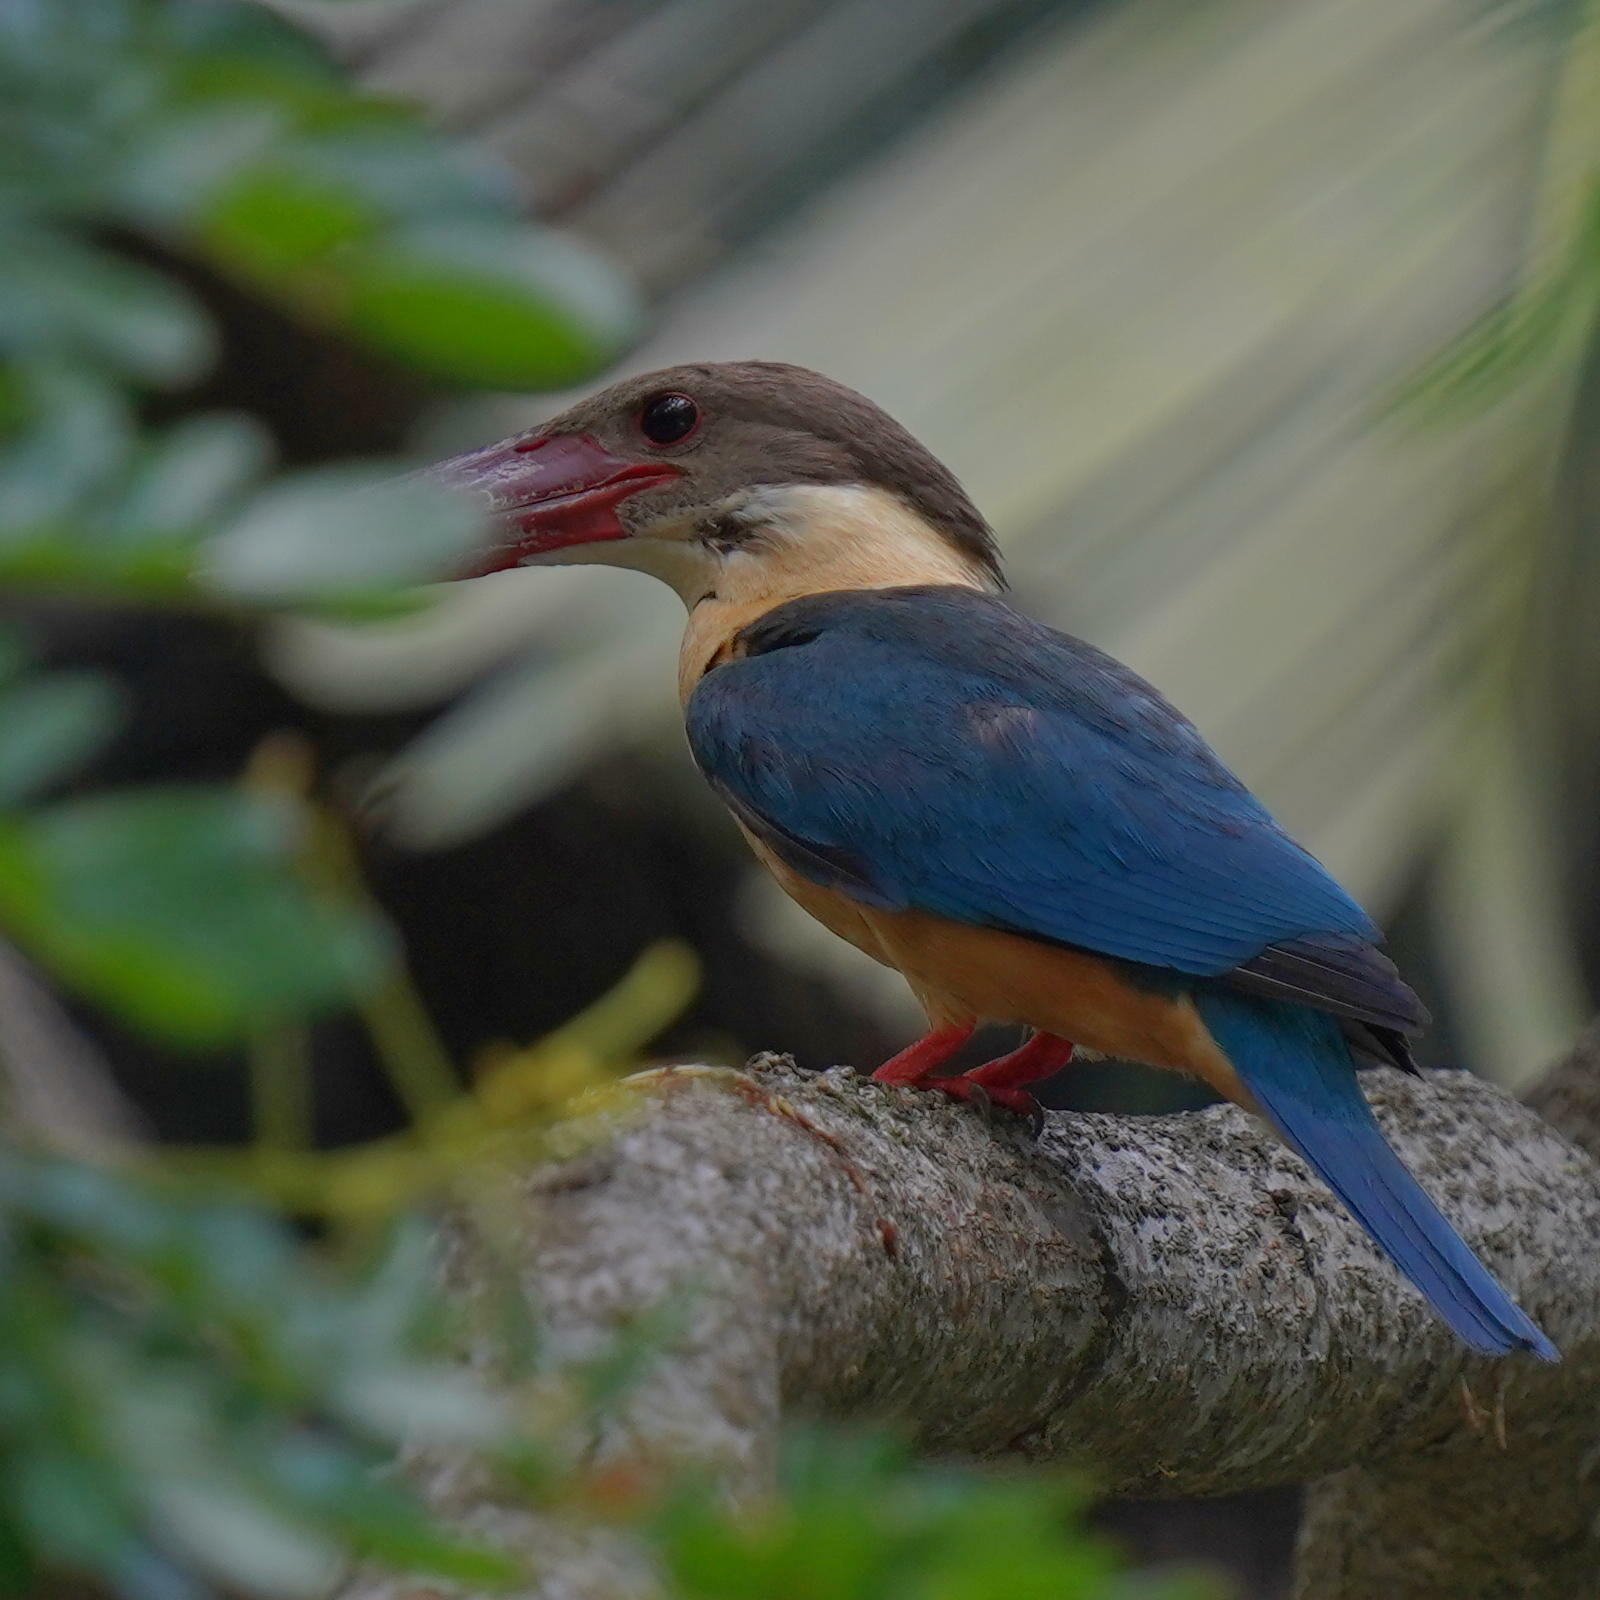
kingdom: Animalia
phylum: Chordata
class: Aves
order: Coraciiformes
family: Alcedinidae
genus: Pelargopsis
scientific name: Pelargopsis capensis
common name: Stork-billed kingfisher
